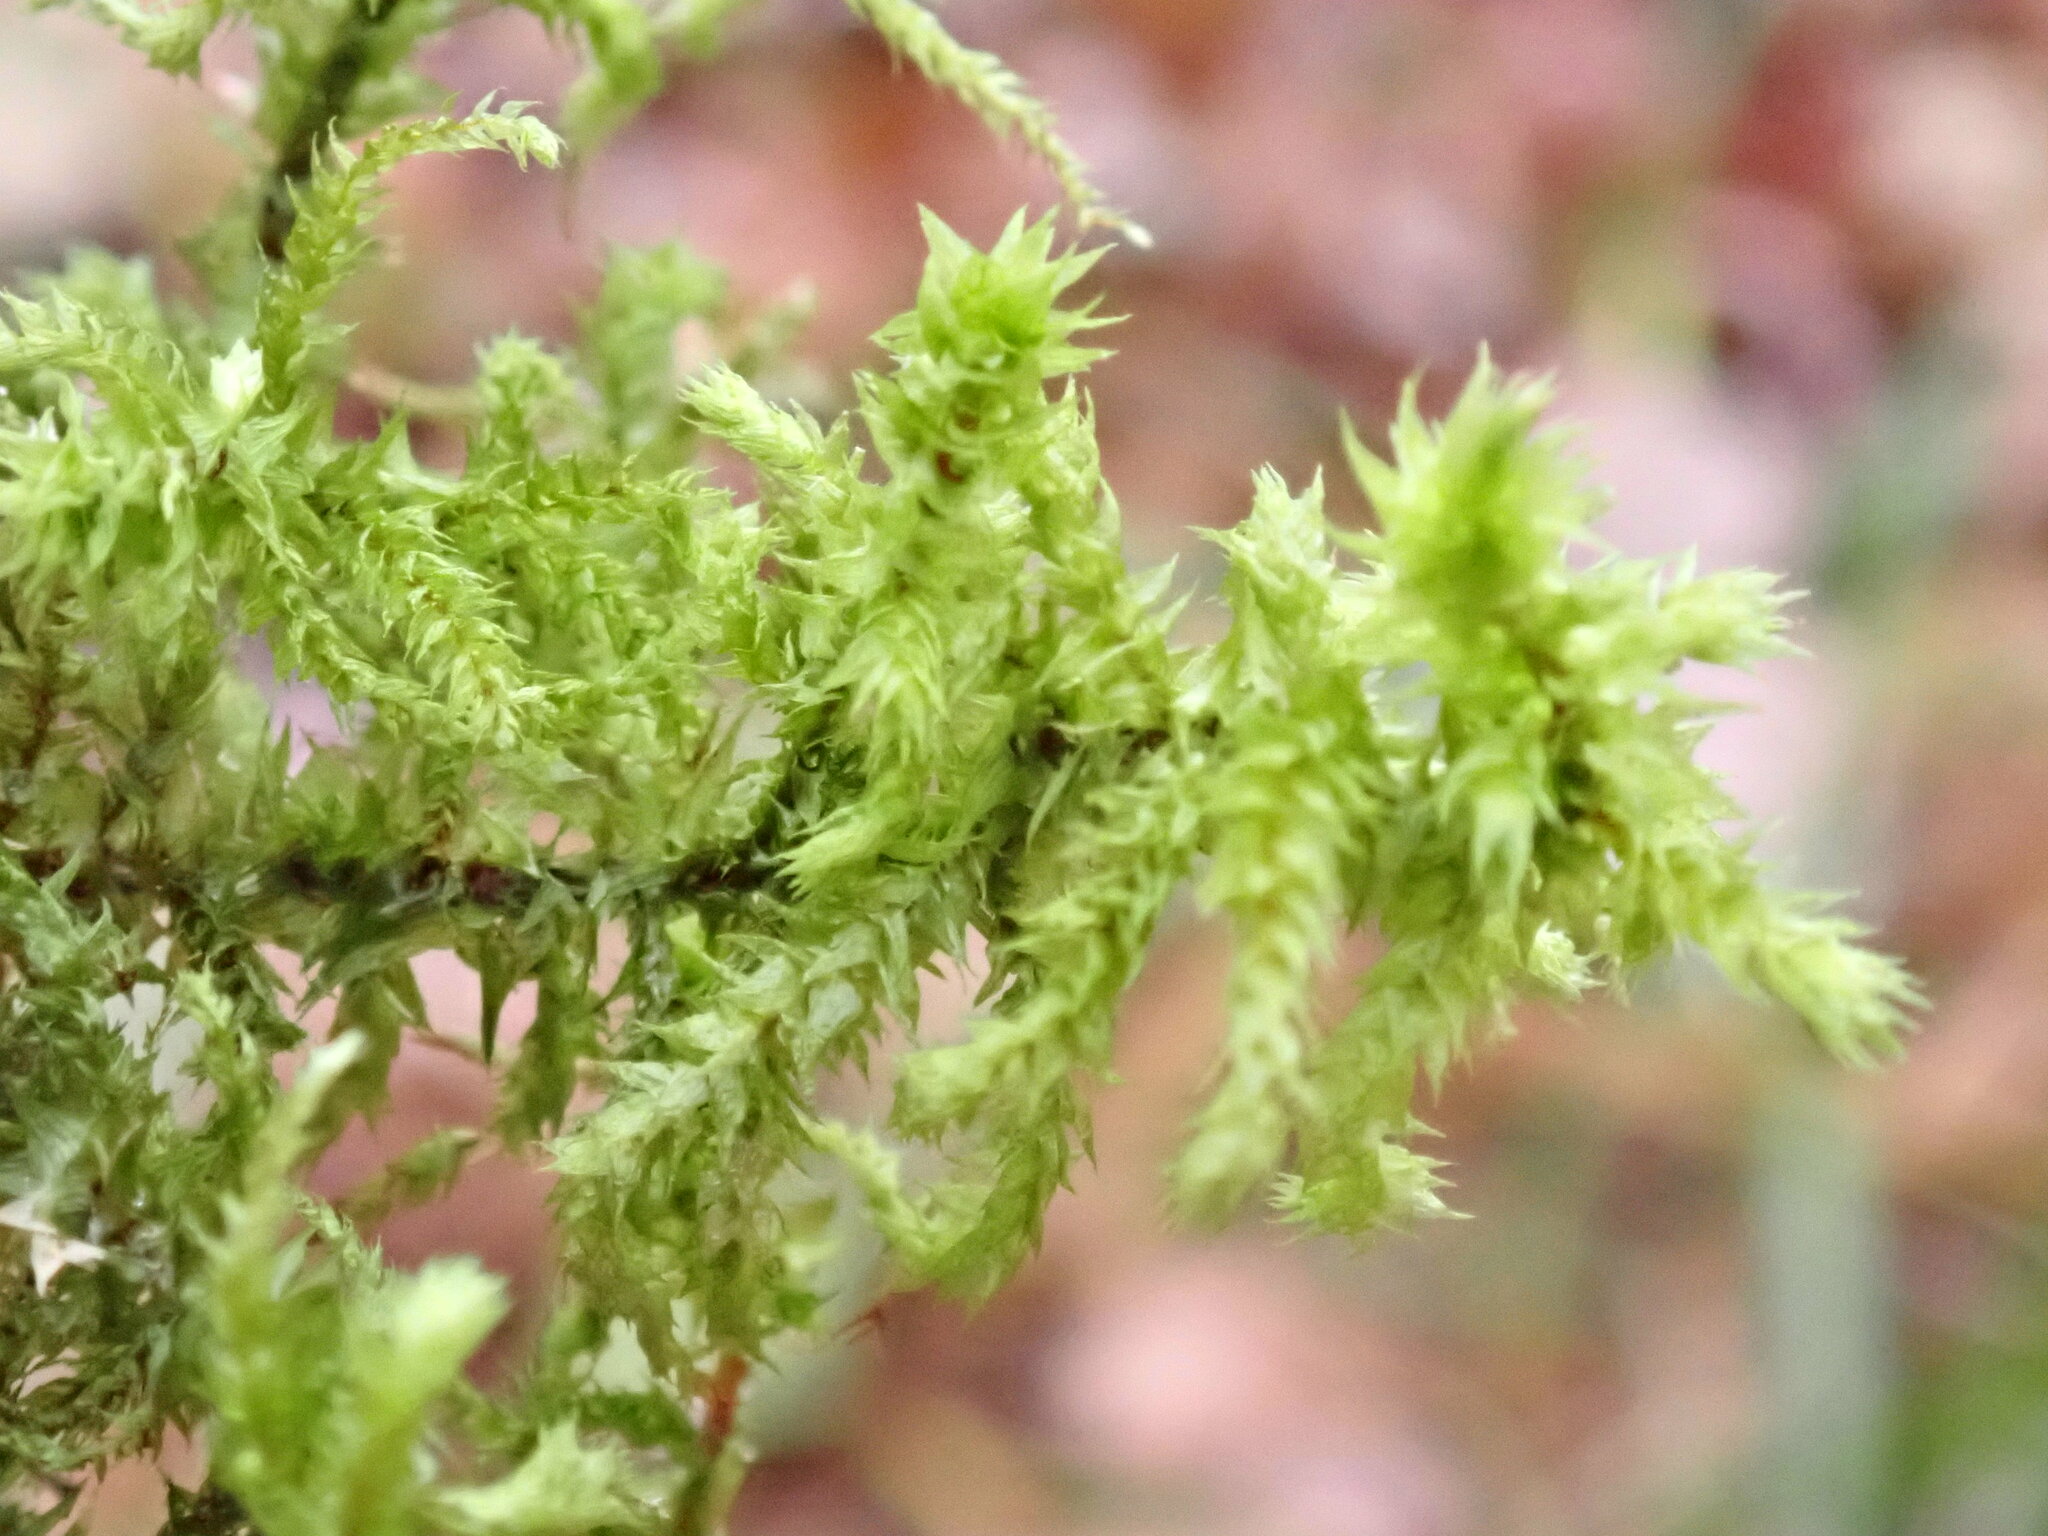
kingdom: Plantae
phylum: Bryophyta
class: Bryopsida
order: Hypnales
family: Hylocomiaceae
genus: Hylocomiadelphus
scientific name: Hylocomiadelphus triquetrus
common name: Rough goose neck moss
